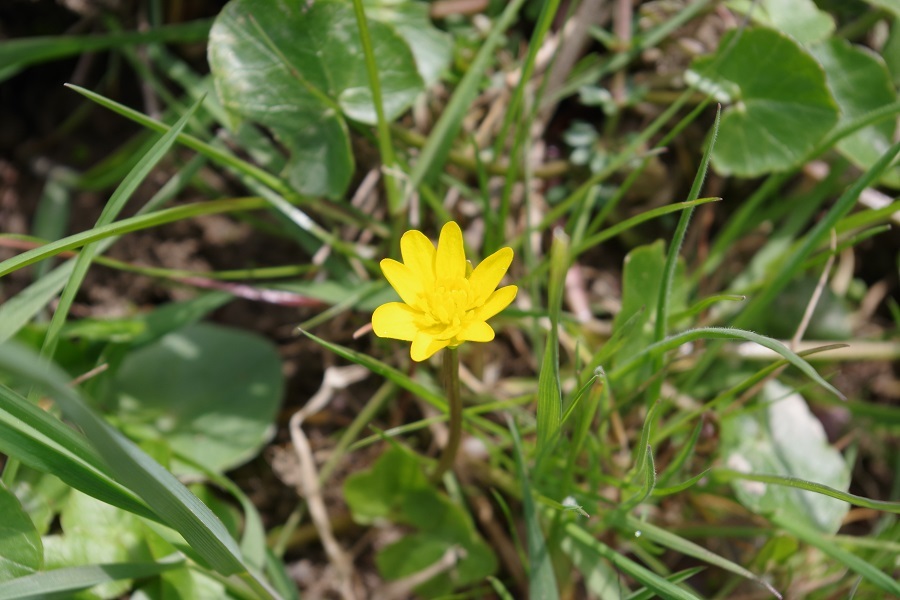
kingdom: Plantae
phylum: Tracheophyta
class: Magnoliopsida
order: Ranunculales
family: Ranunculaceae
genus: Ficaria
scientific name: Ficaria verna
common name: Lesser celandine
